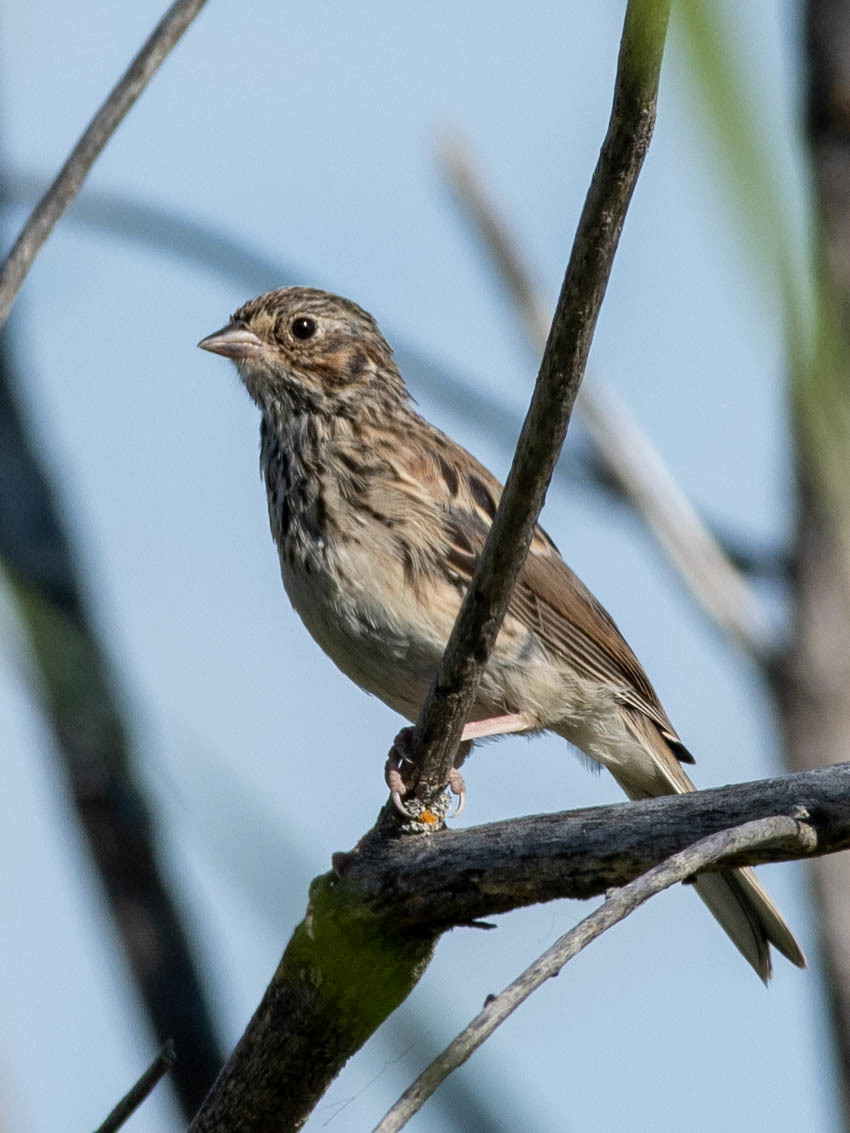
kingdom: Animalia
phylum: Chordata
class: Aves
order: Passeriformes
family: Passerellidae
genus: Pooecetes
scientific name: Pooecetes gramineus
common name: Vesper sparrow
